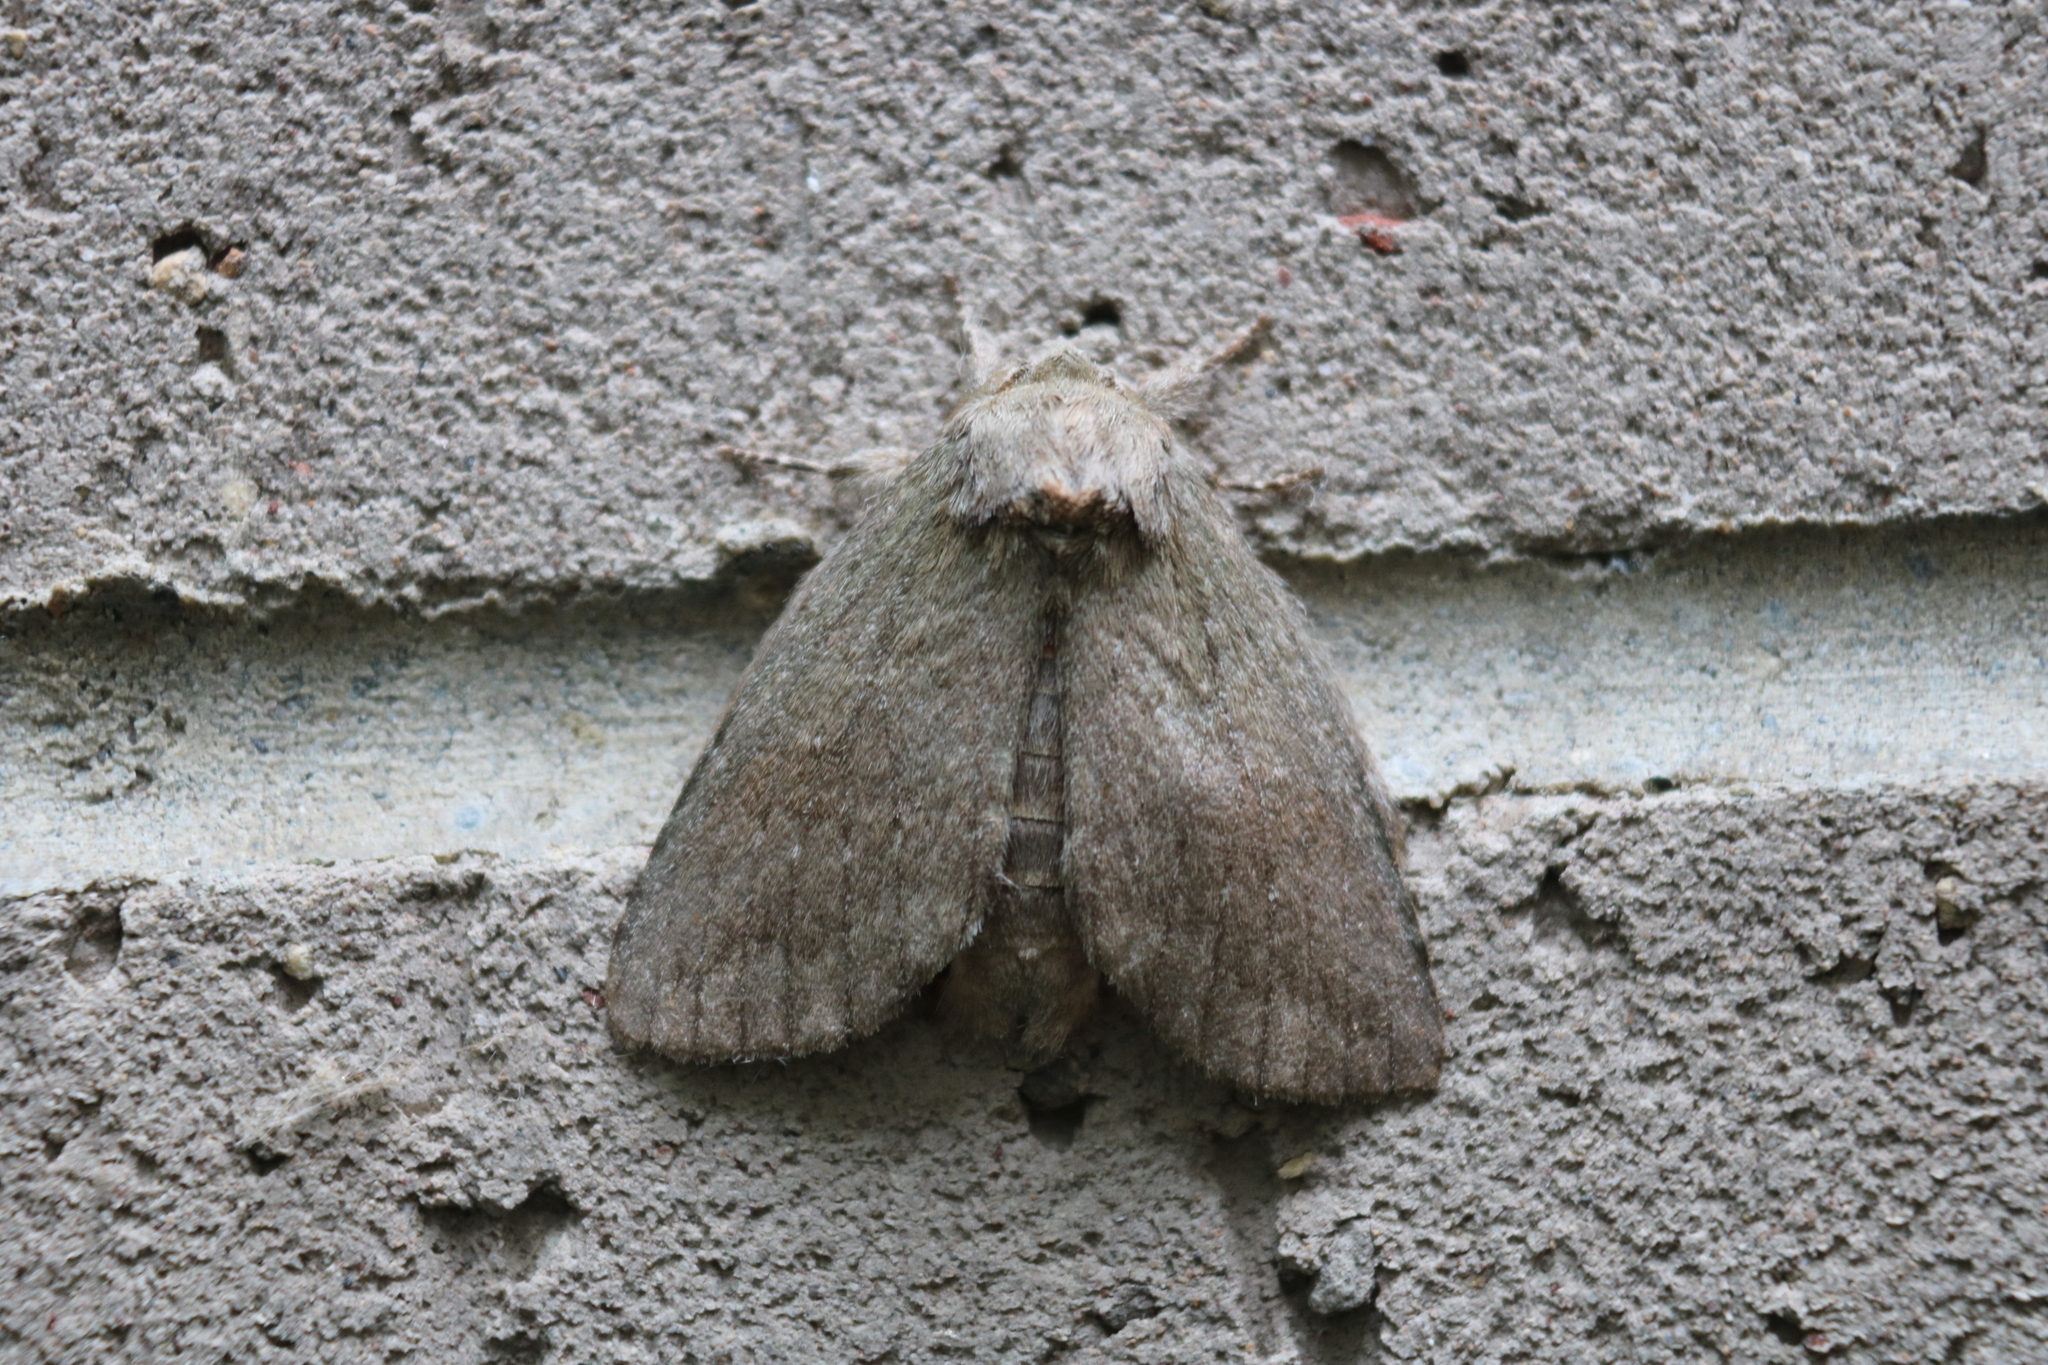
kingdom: Animalia
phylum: Arthropoda
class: Insecta
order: Lepidoptera
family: Notodontidae
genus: Misogada
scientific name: Misogada unicolor
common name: Drab prominent
